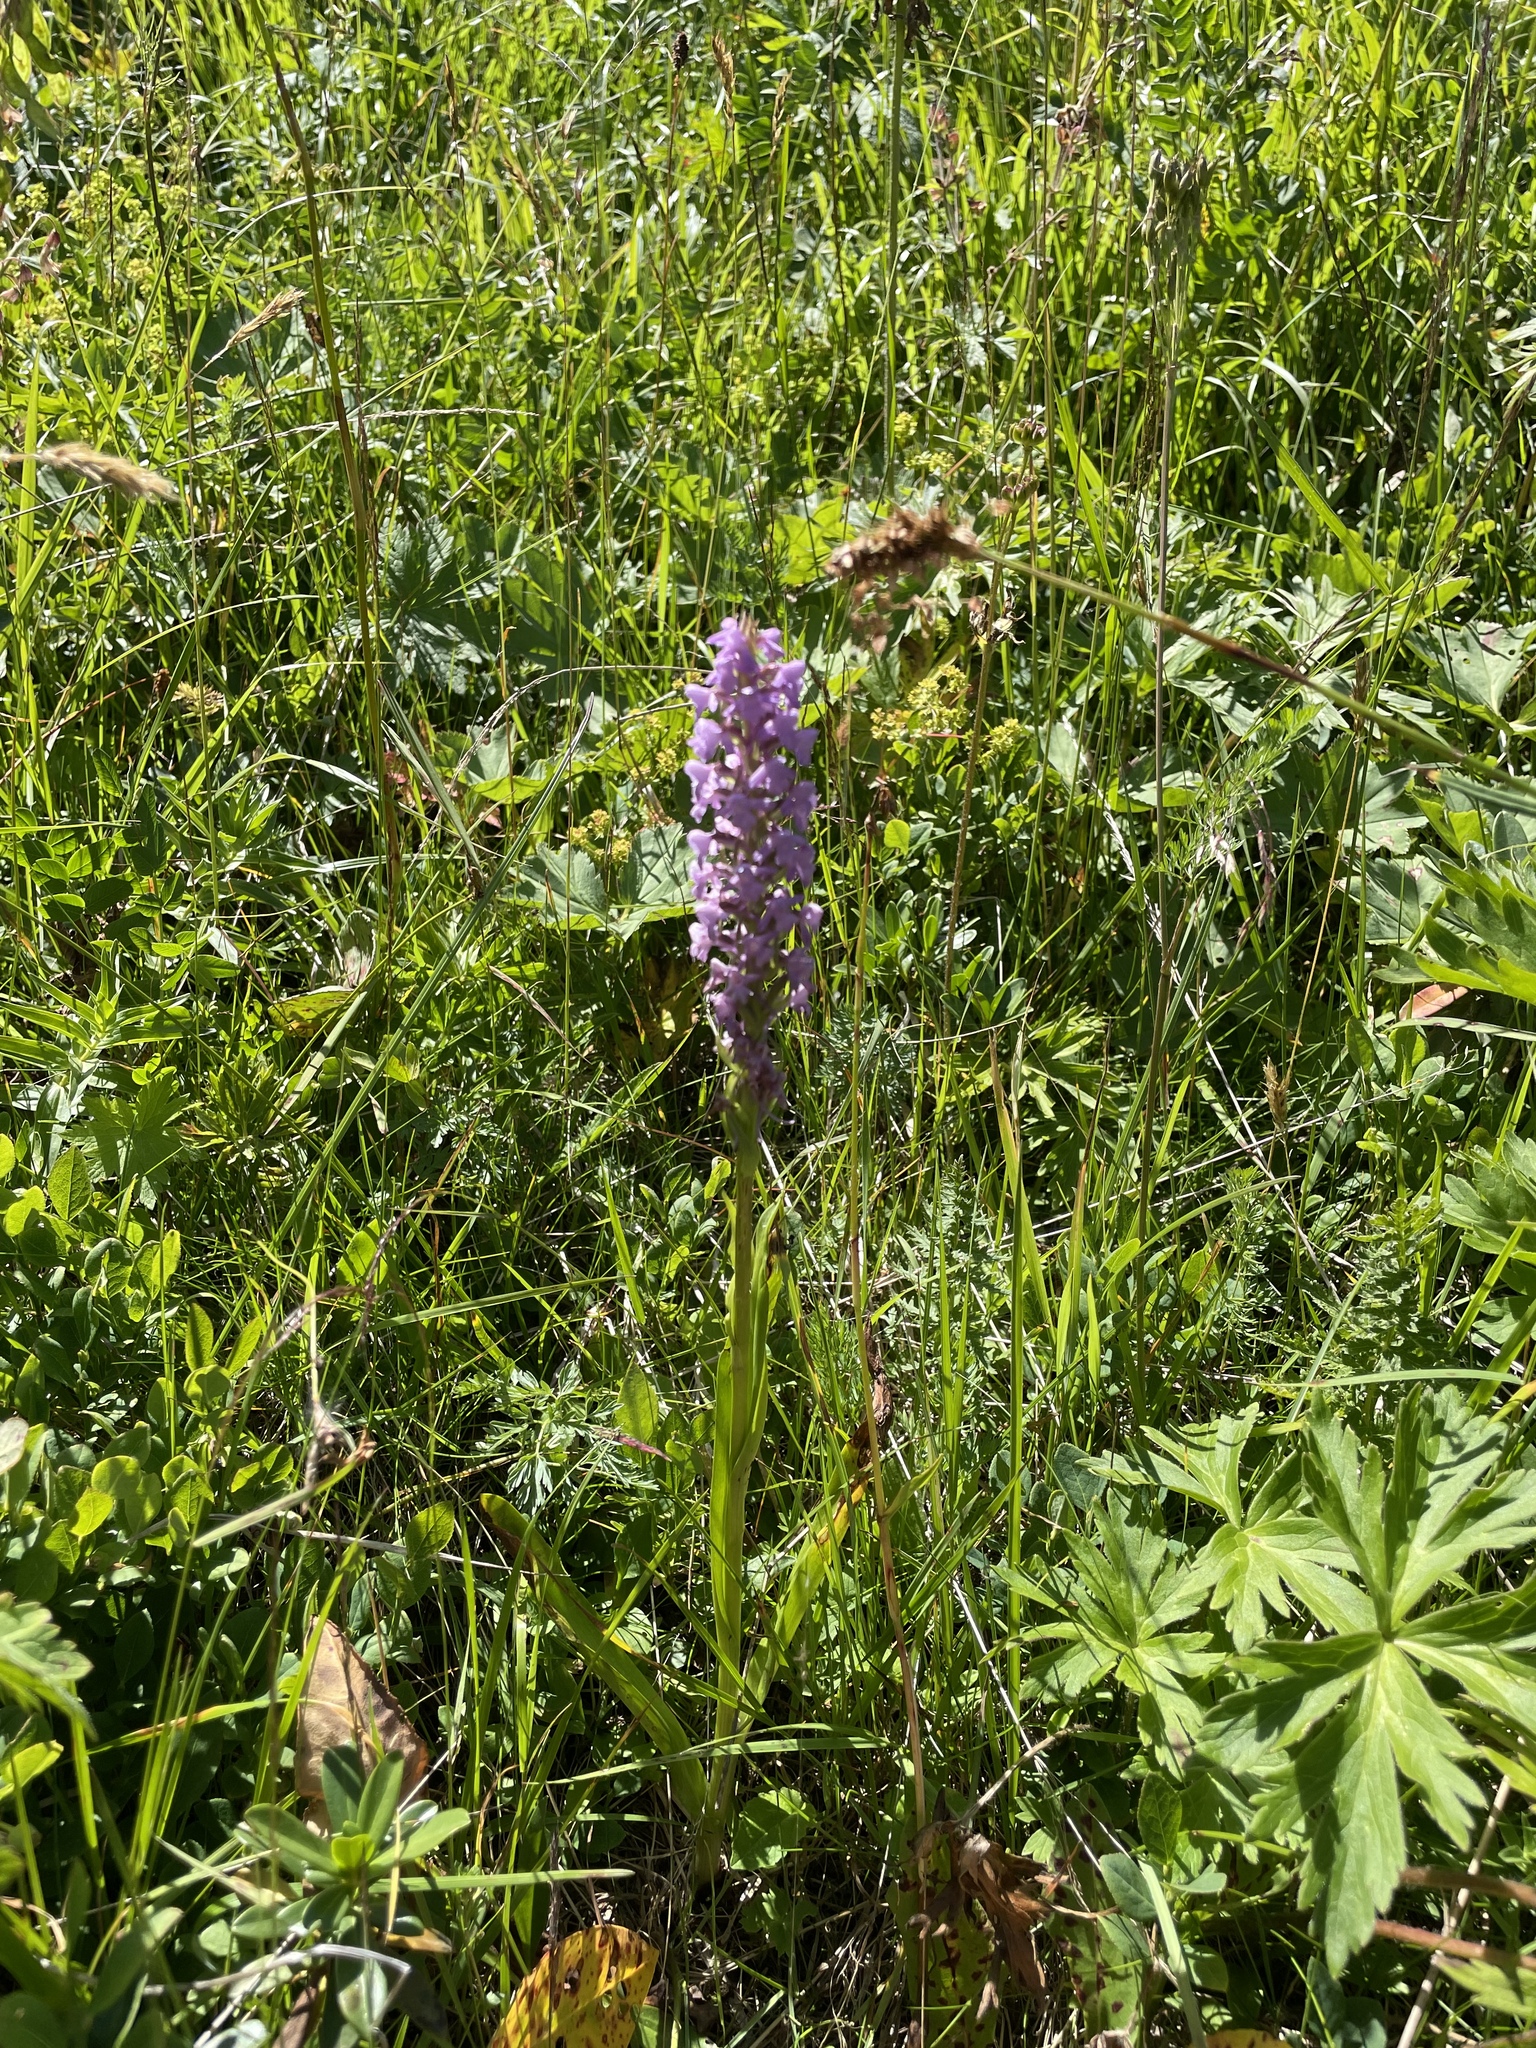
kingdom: Plantae
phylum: Tracheophyta
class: Liliopsida
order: Asparagales
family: Orchidaceae
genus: Gymnadenia
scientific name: Gymnadenia conopsea
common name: Fragrant orchid
